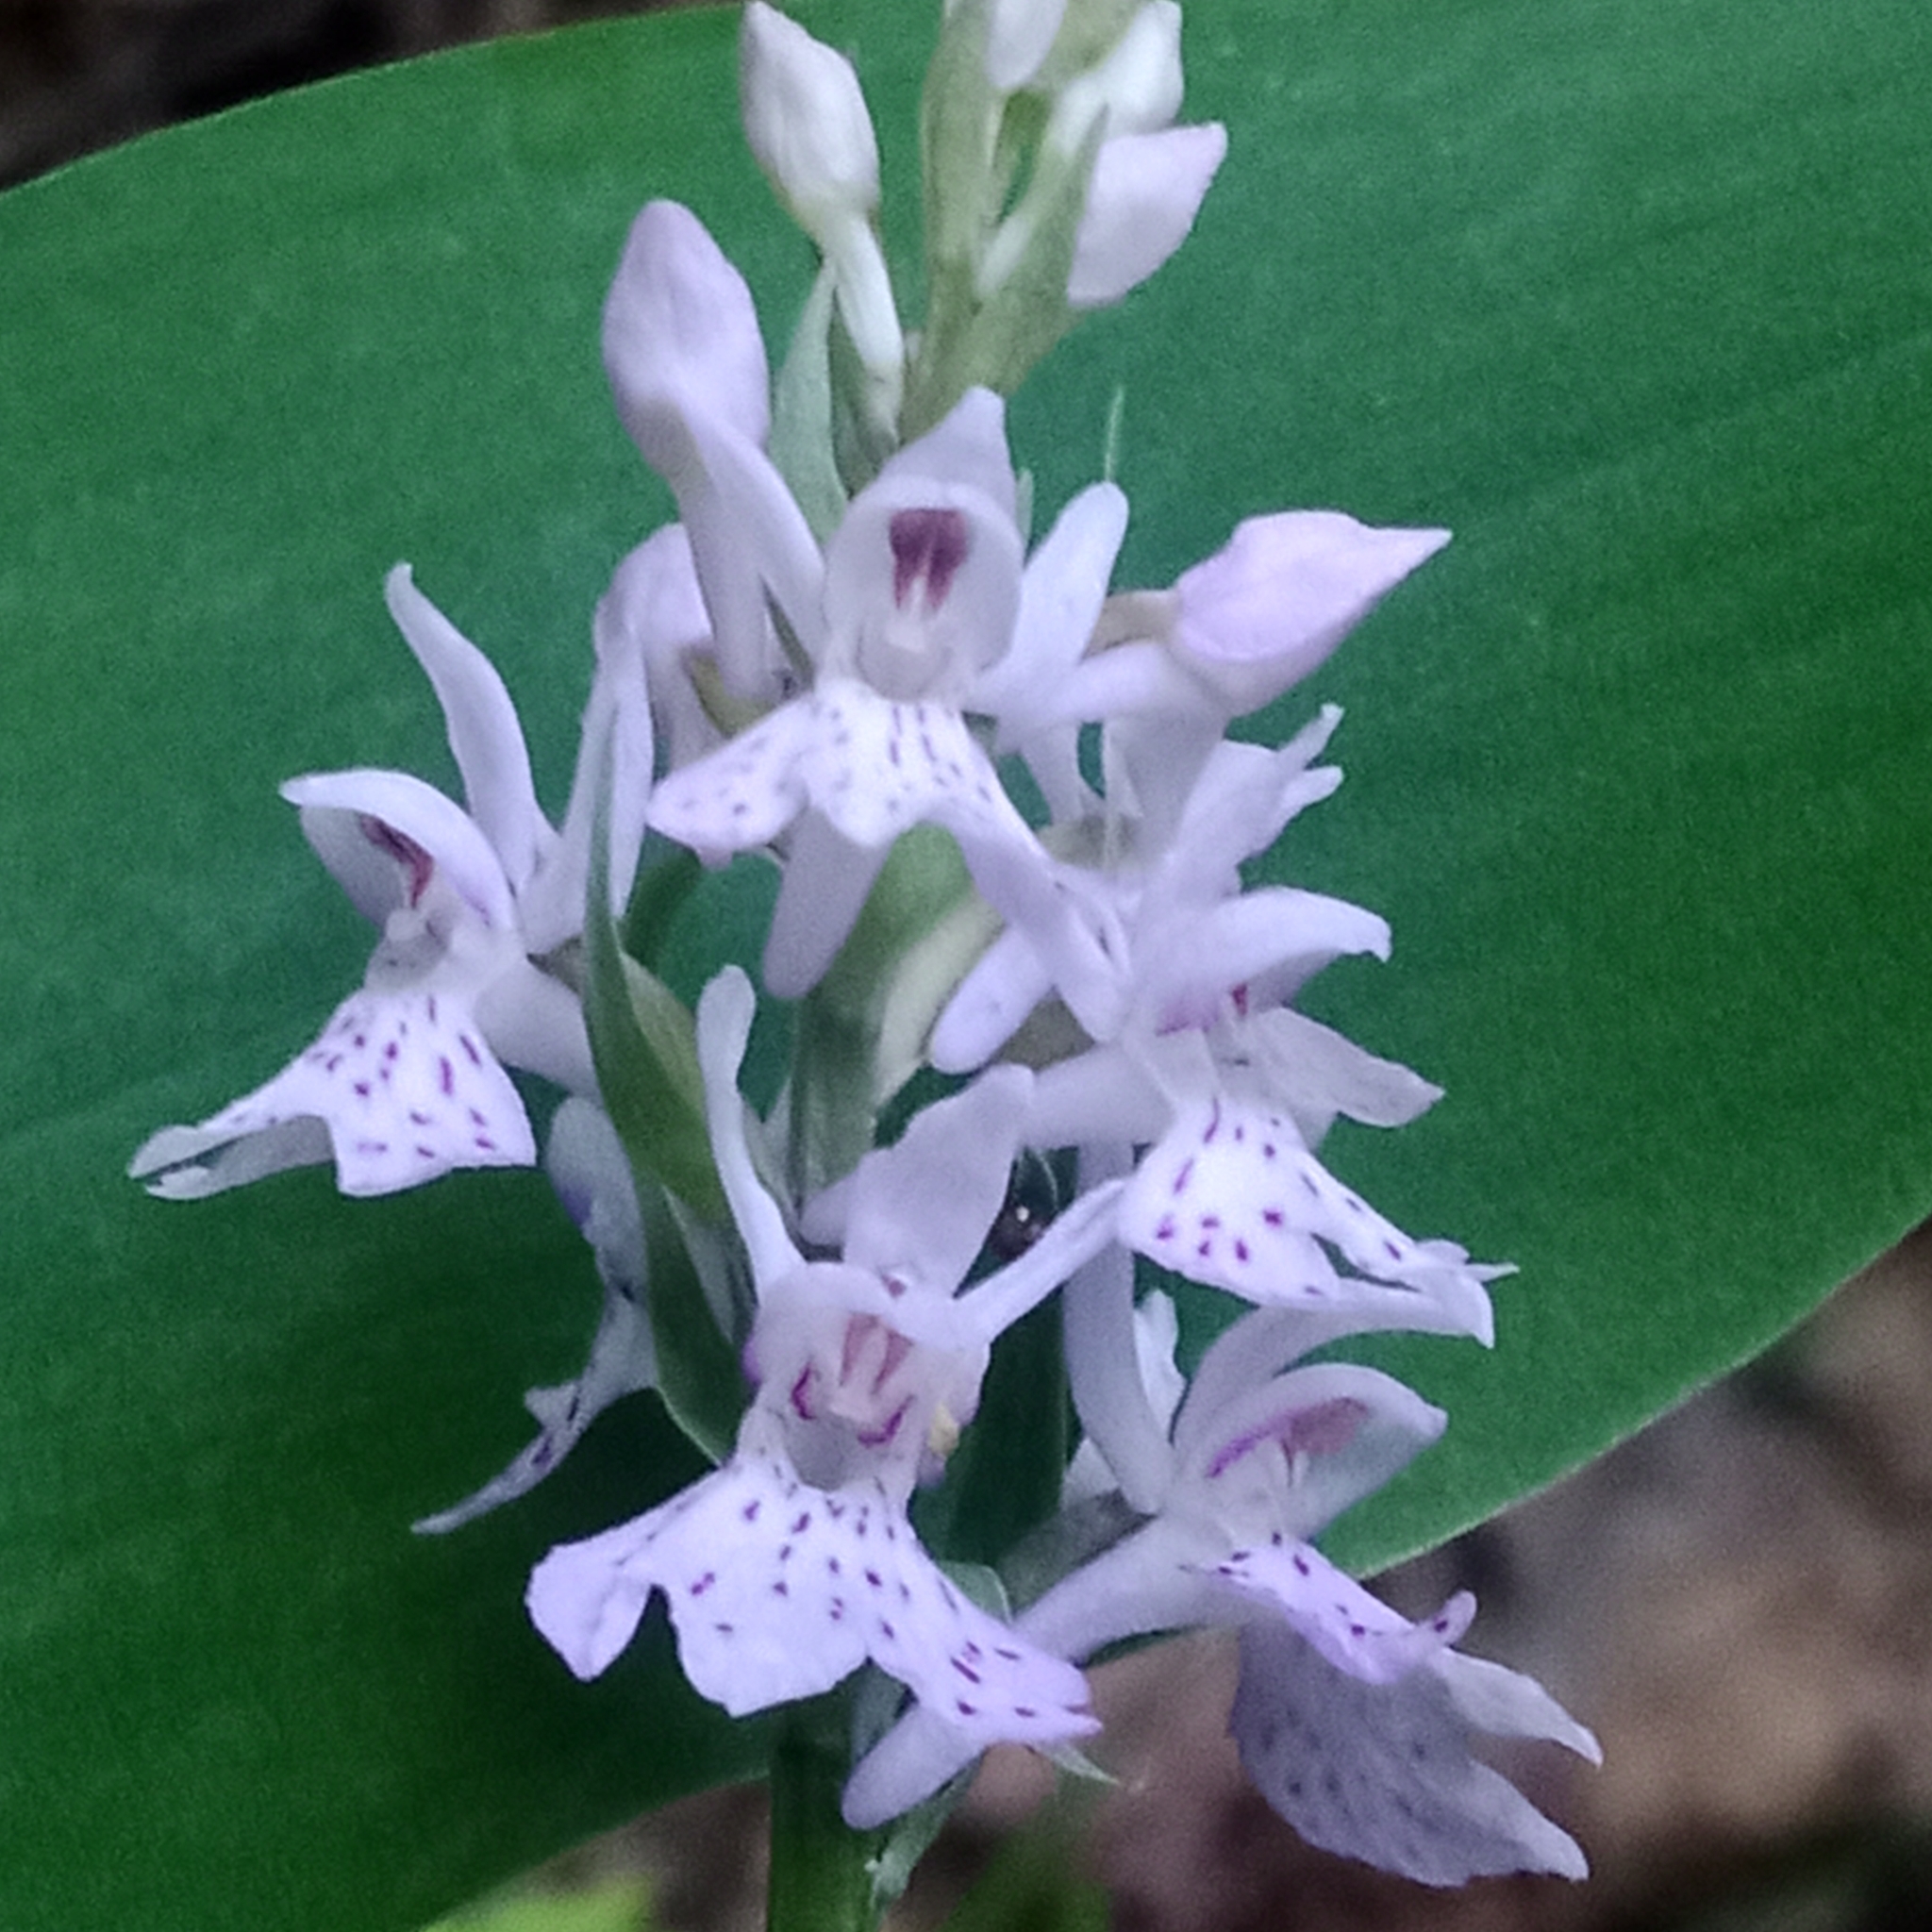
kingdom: Plantae
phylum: Tracheophyta
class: Liliopsida
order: Asparagales
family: Orchidaceae
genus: Dactylorhiza
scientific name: Dactylorhiza maculata
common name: Heath spotted-orchid
